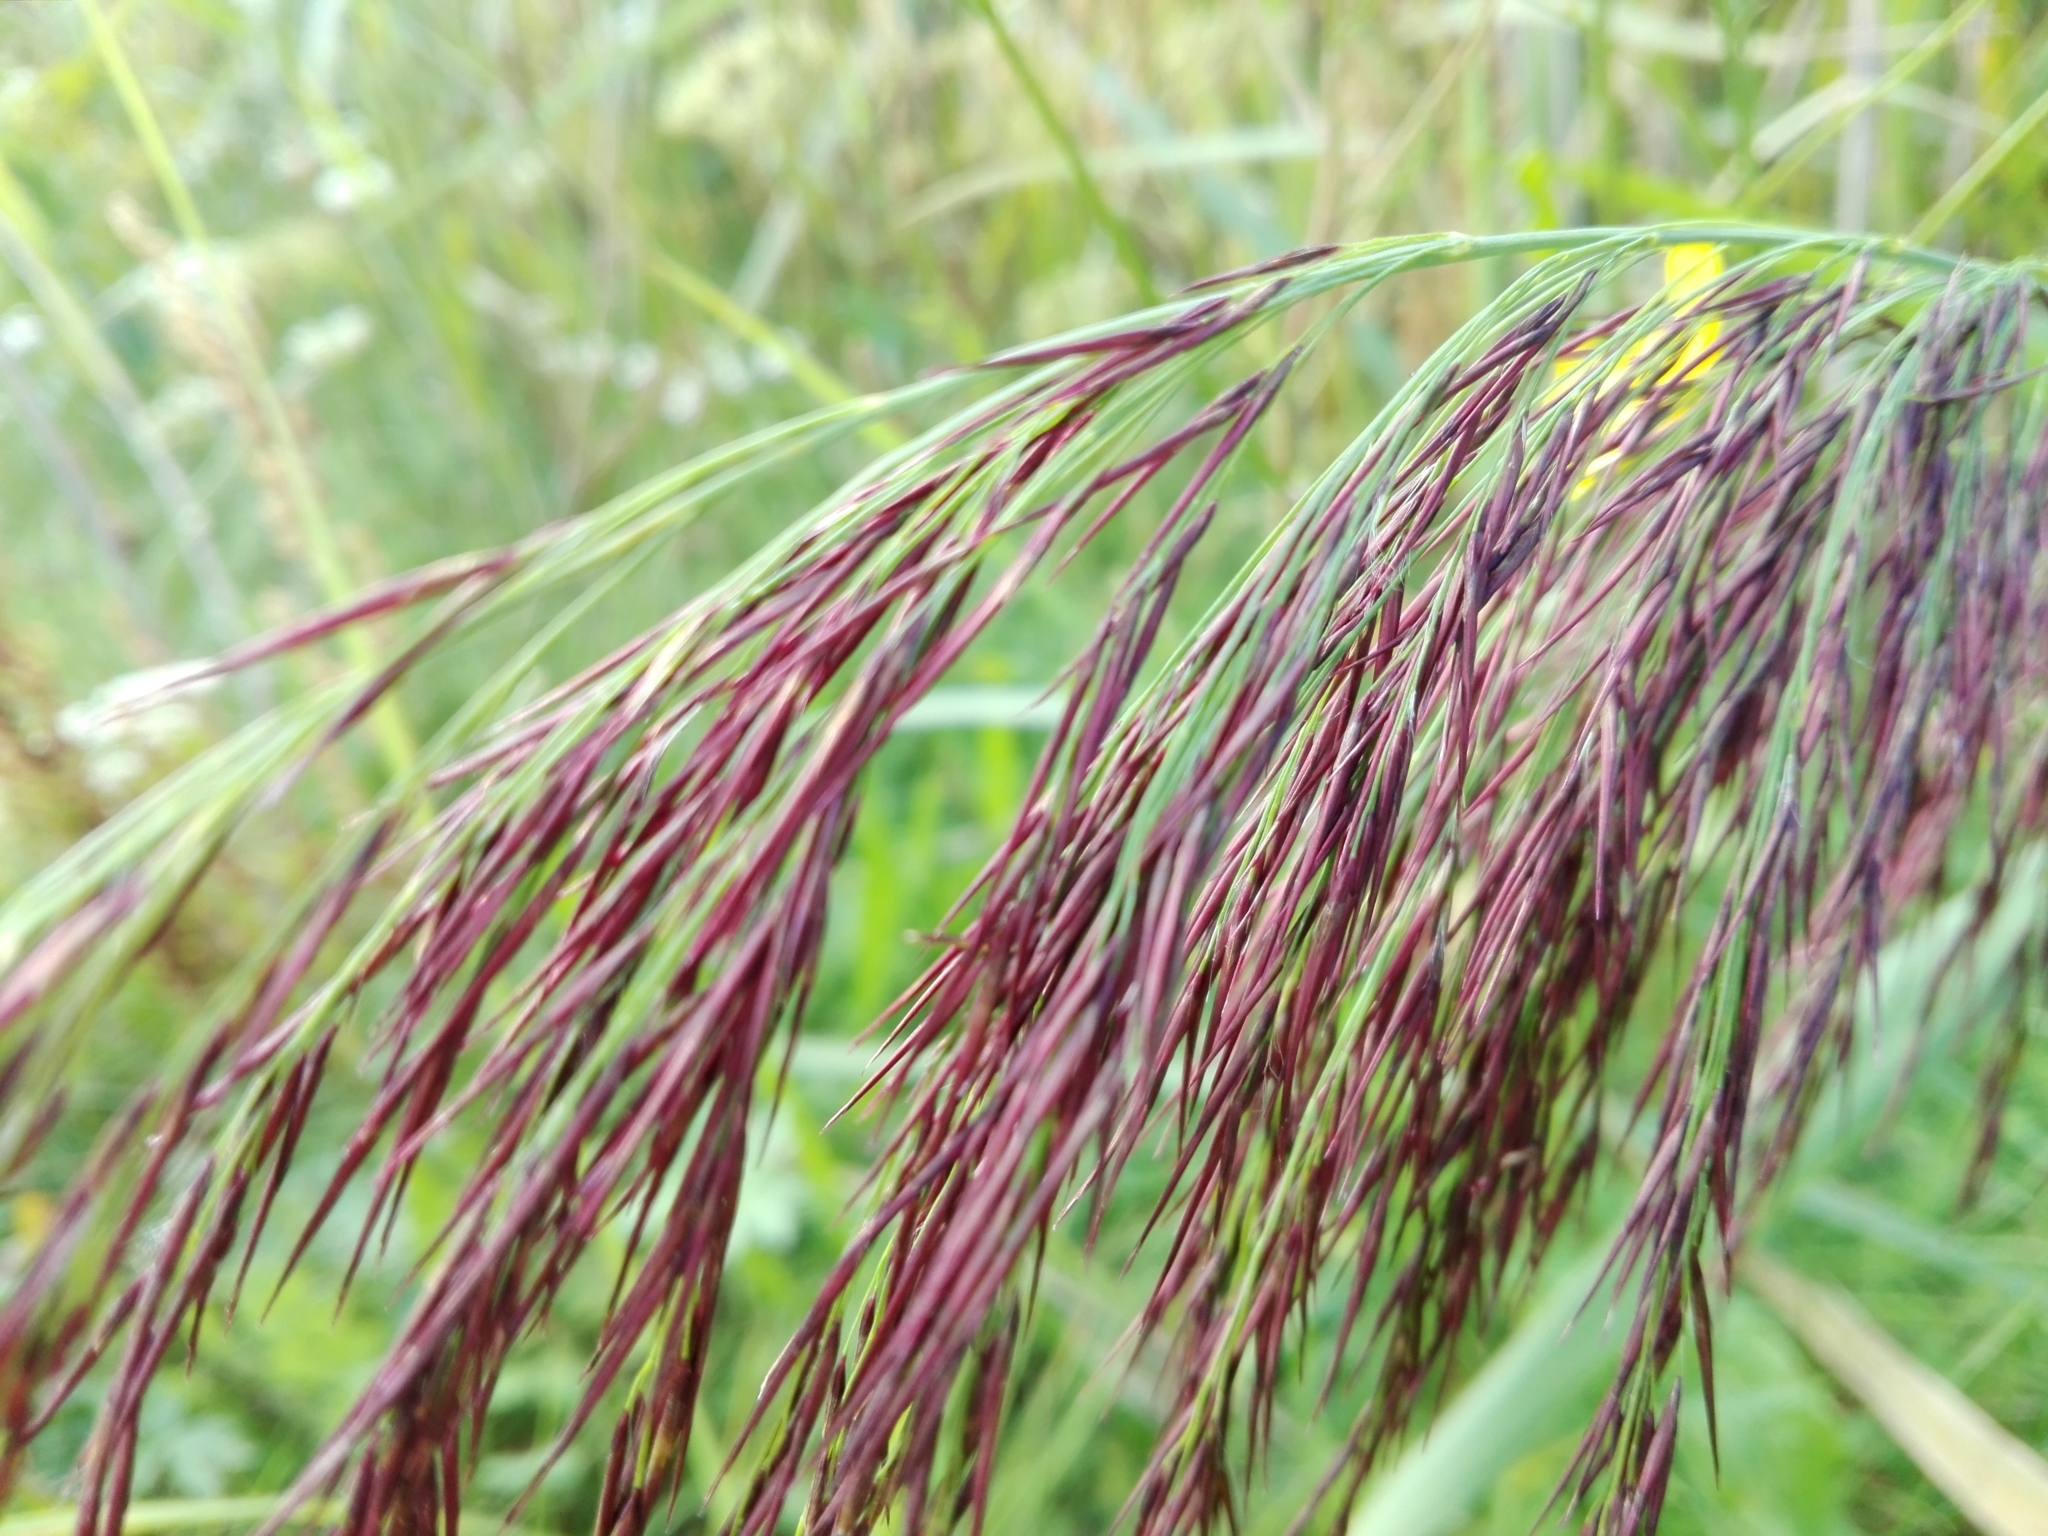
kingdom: Plantae
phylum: Tracheophyta
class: Liliopsida
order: Poales
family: Poaceae
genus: Phragmites
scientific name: Phragmites australis
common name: Common reed
